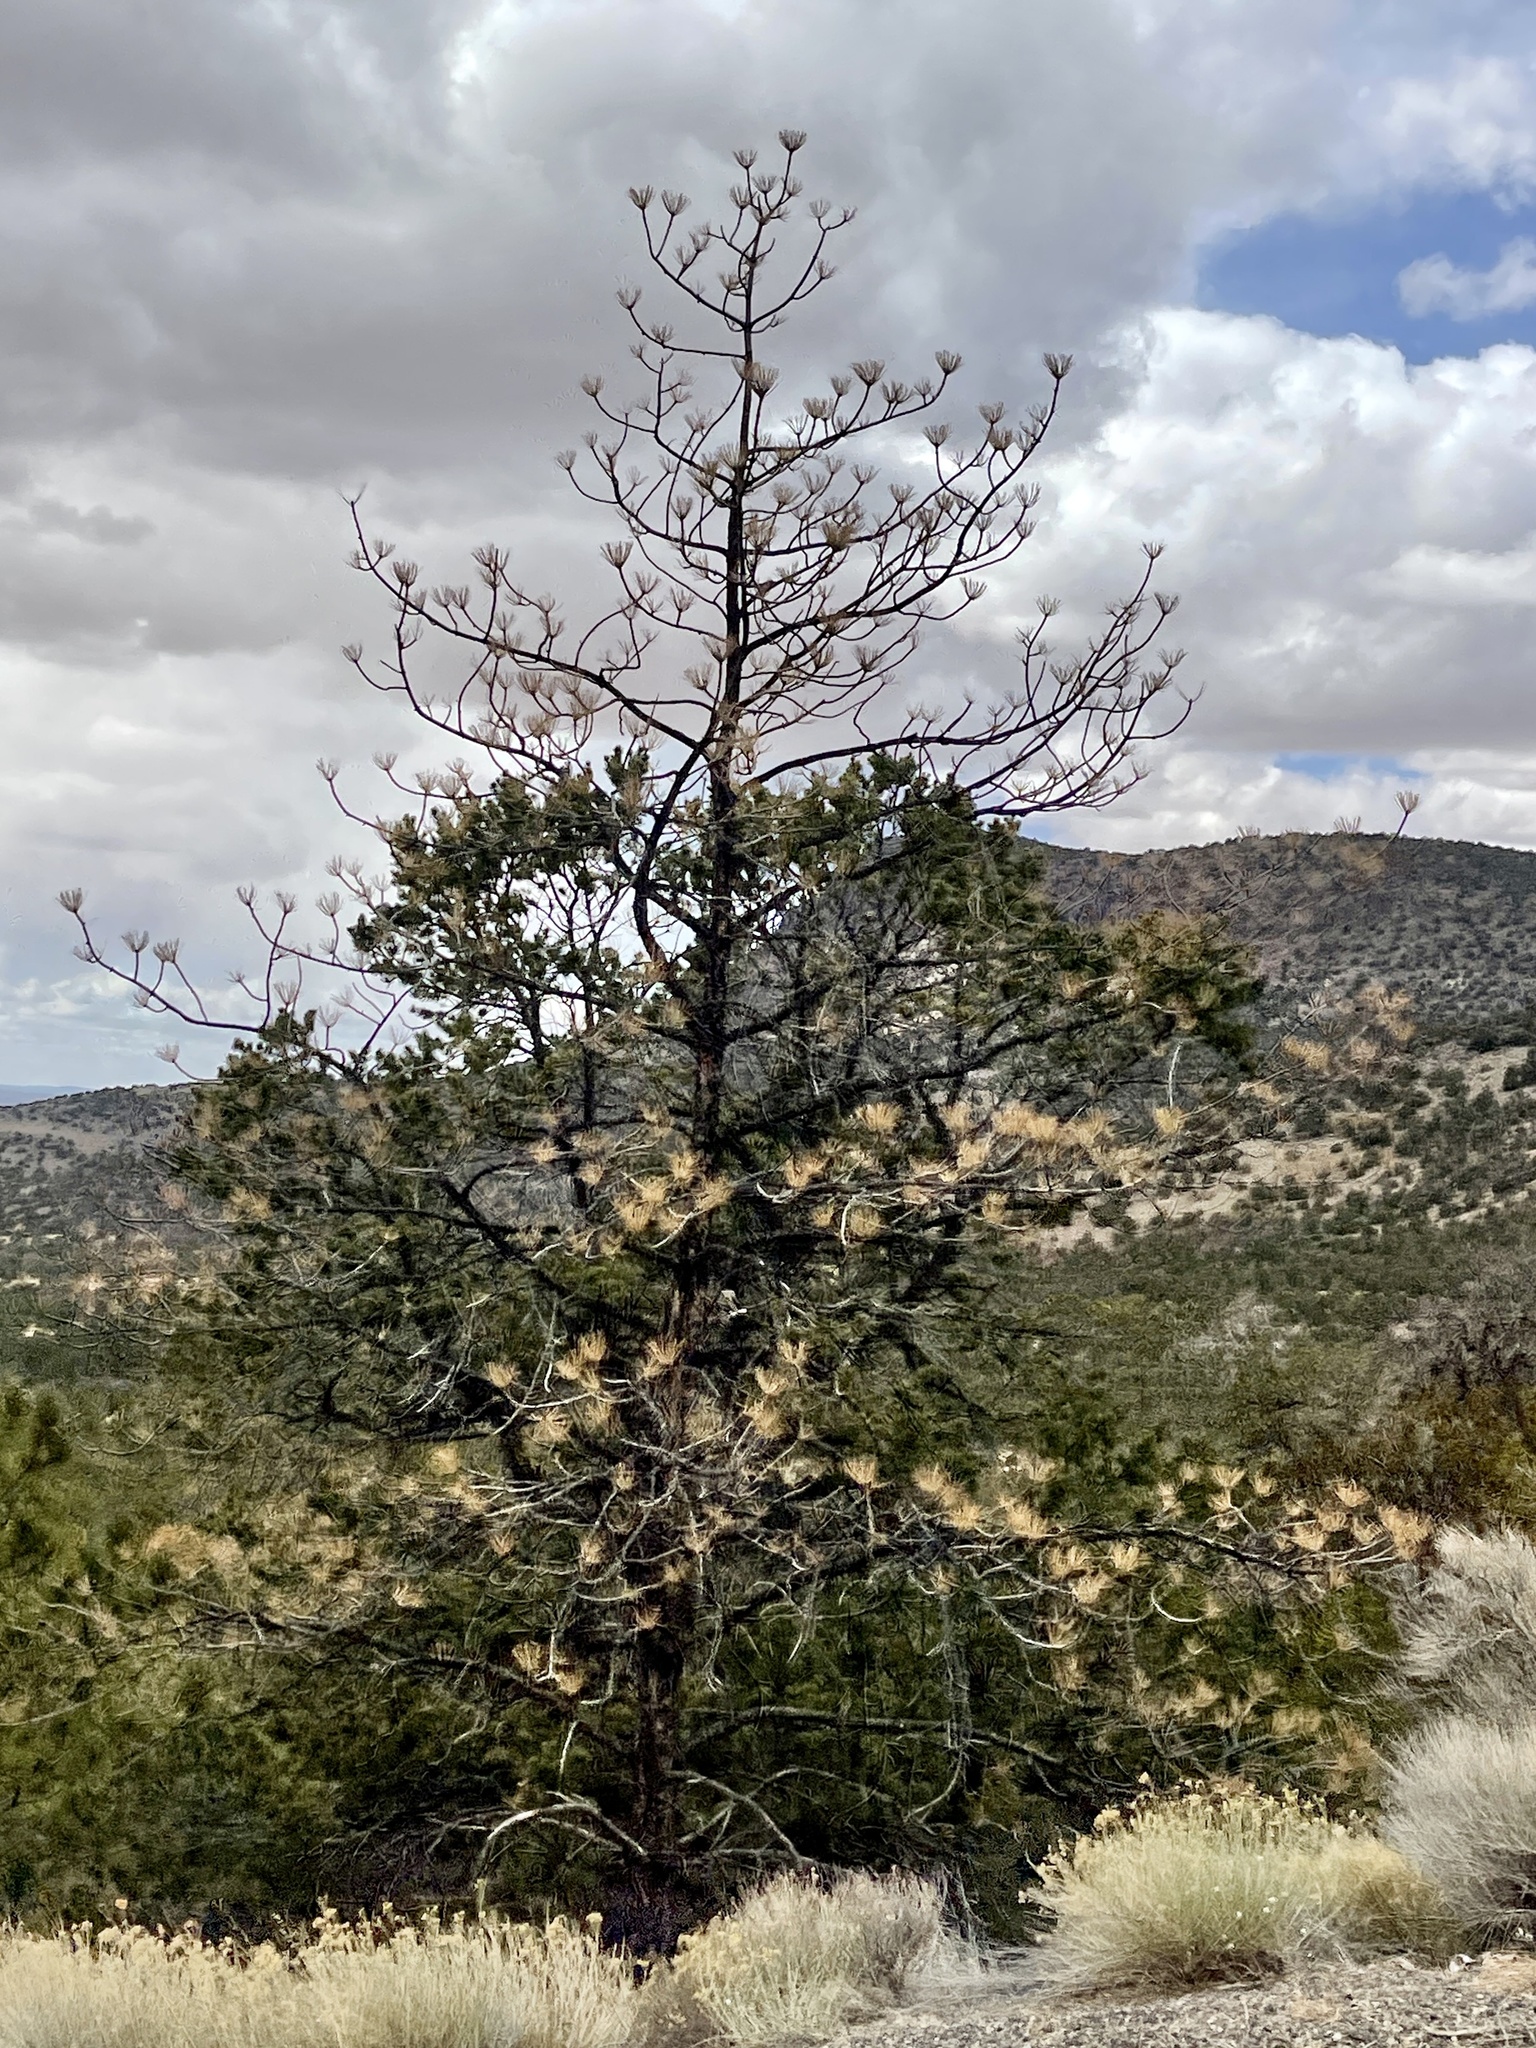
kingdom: Plantae
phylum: Tracheophyta
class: Pinopsida
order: Pinales
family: Pinaceae
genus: Pinus
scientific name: Pinus ponderosa
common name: Western yellow-pine
